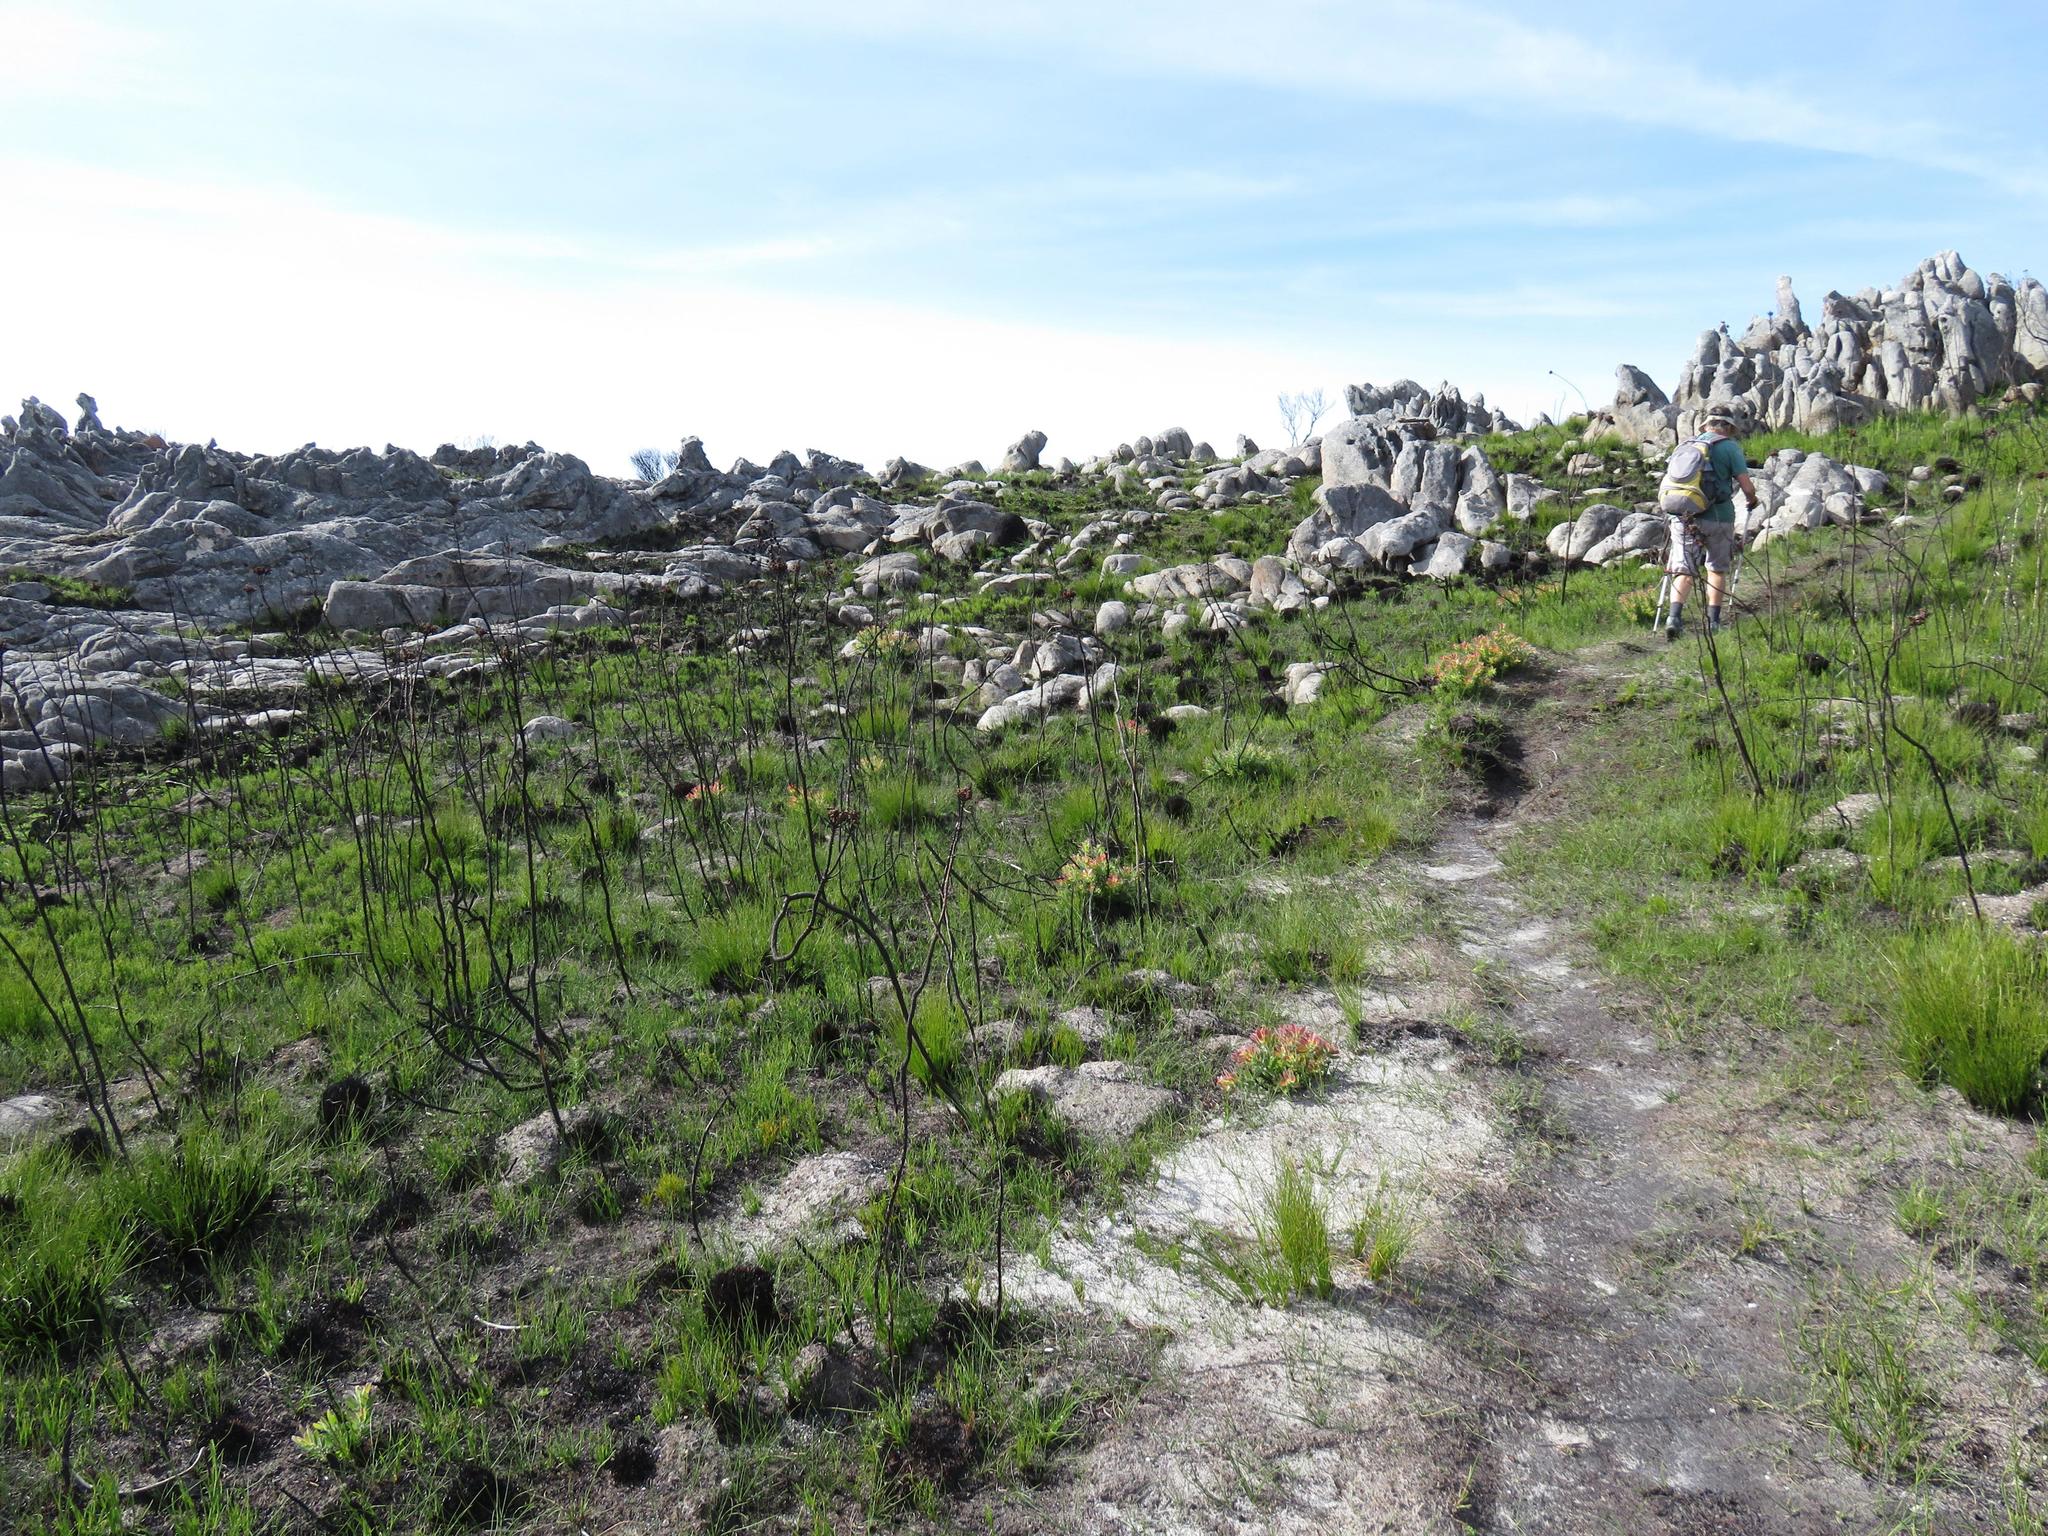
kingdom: Plantae
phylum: Tracheophyta
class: Magnoliopsida
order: Proteales
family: Proteaceae
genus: Mimetes
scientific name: Mimetes cucullatus
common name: Common pagoda
